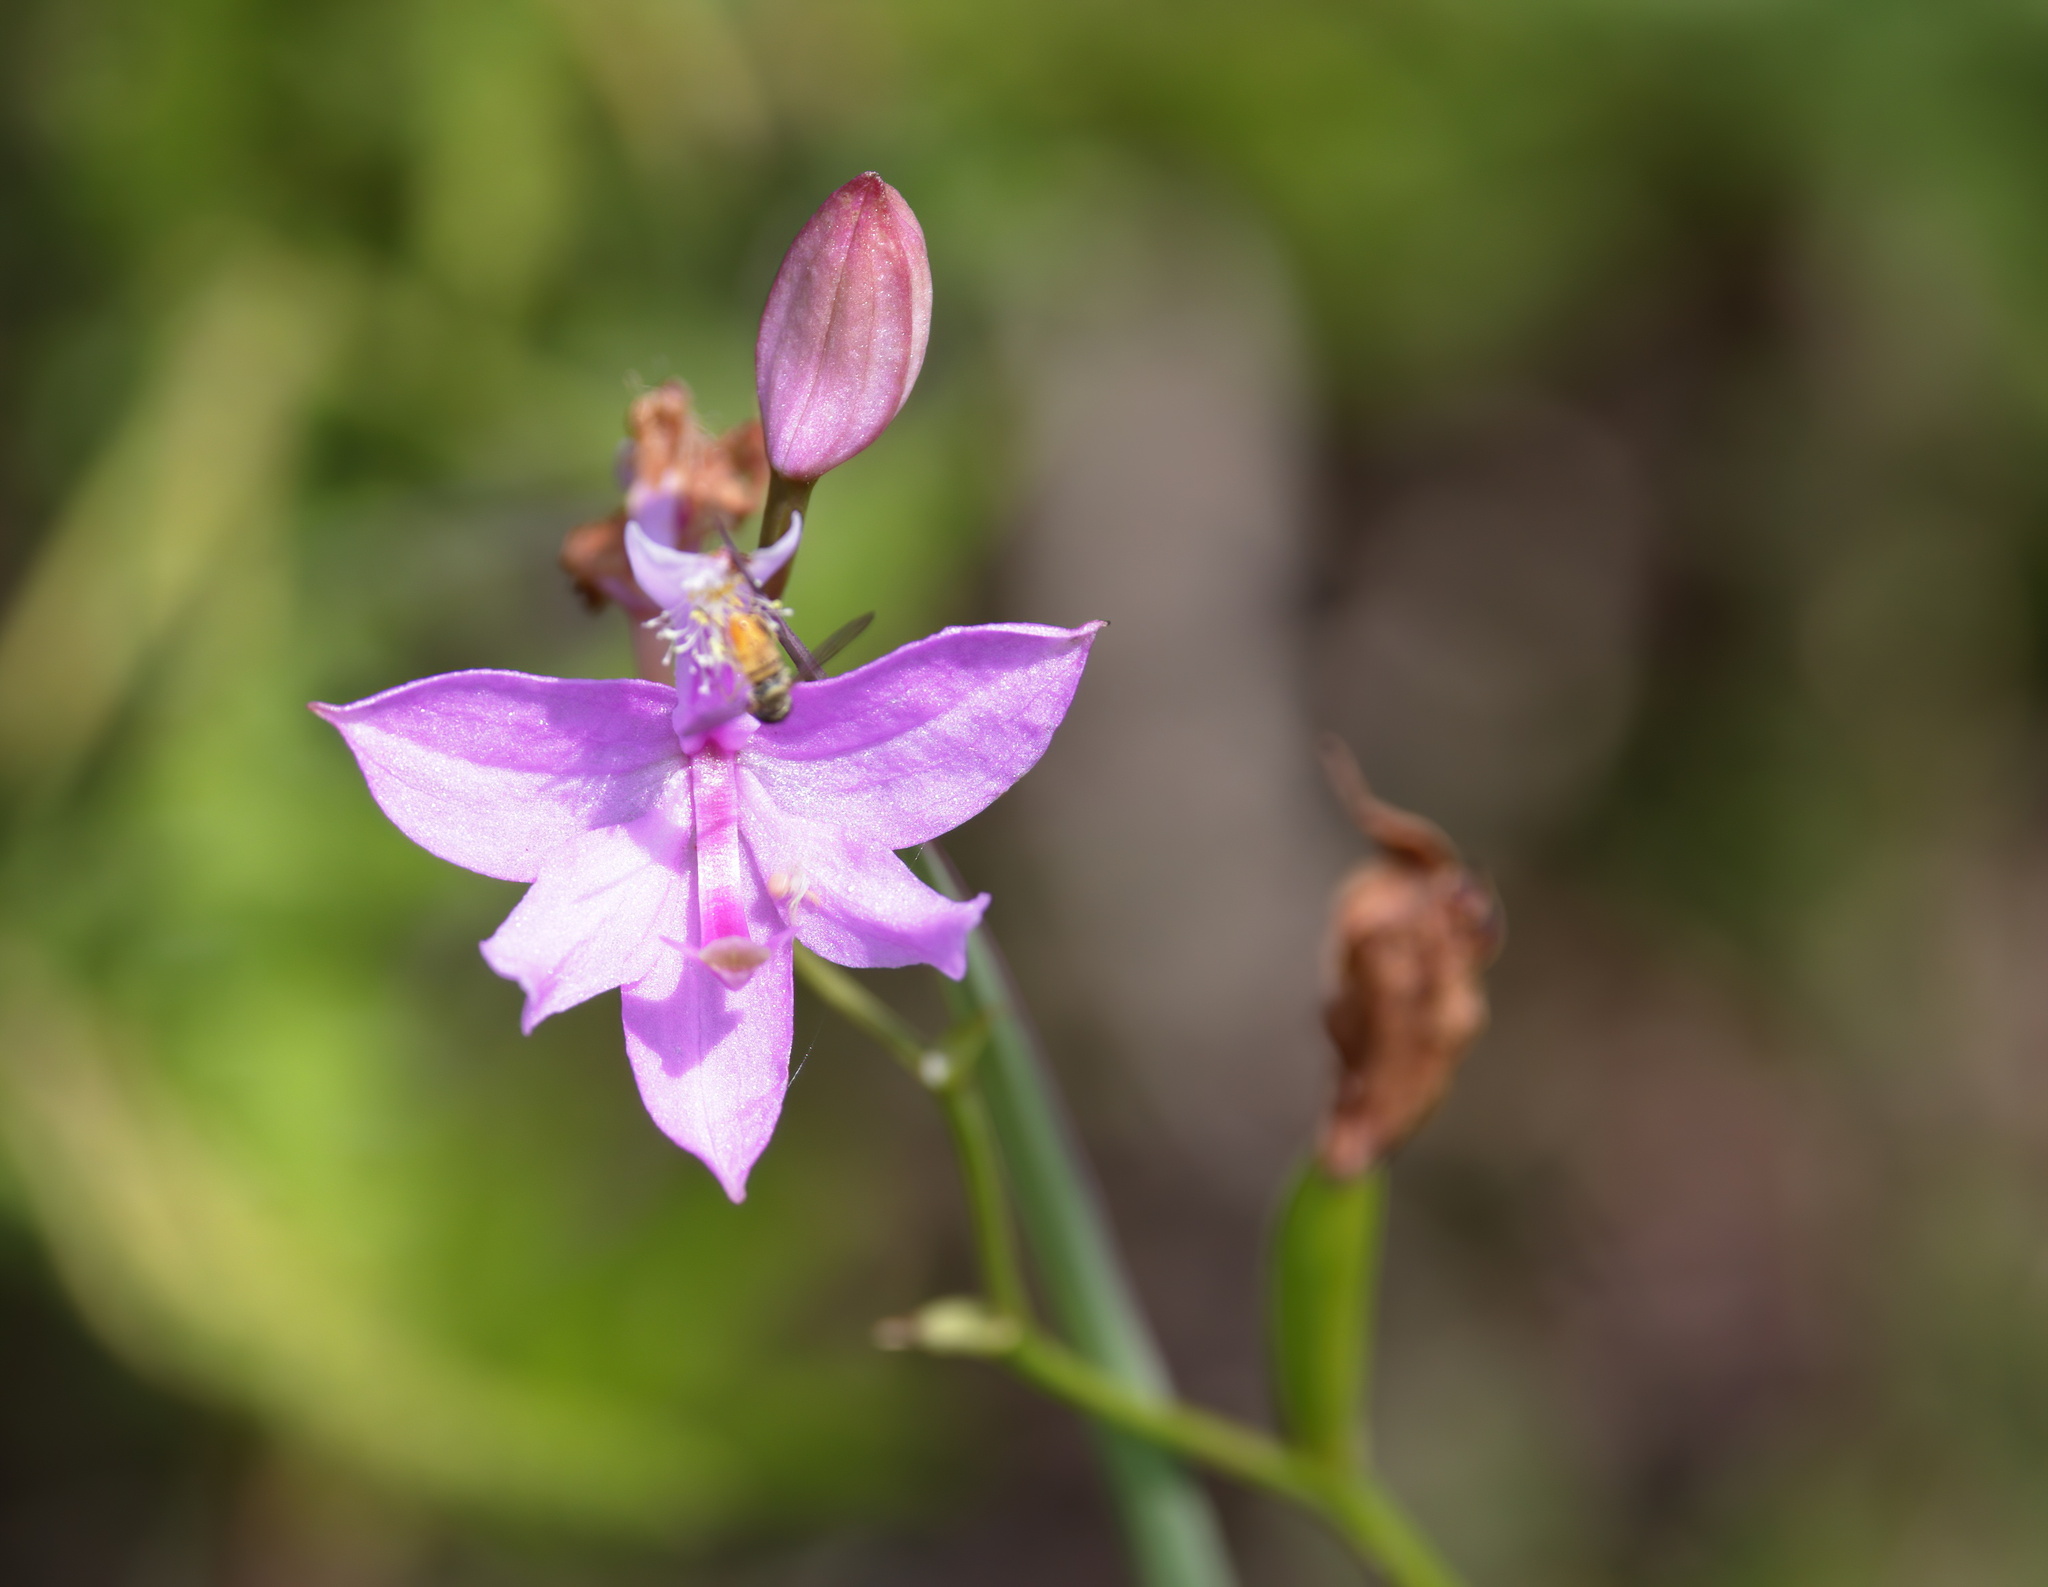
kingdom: Plantae
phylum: Tracheophyta
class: Liliopsida
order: Asparagales
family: Orchidaceae
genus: Calopogon
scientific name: Calopogon tuberosus
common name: Grass-pink
